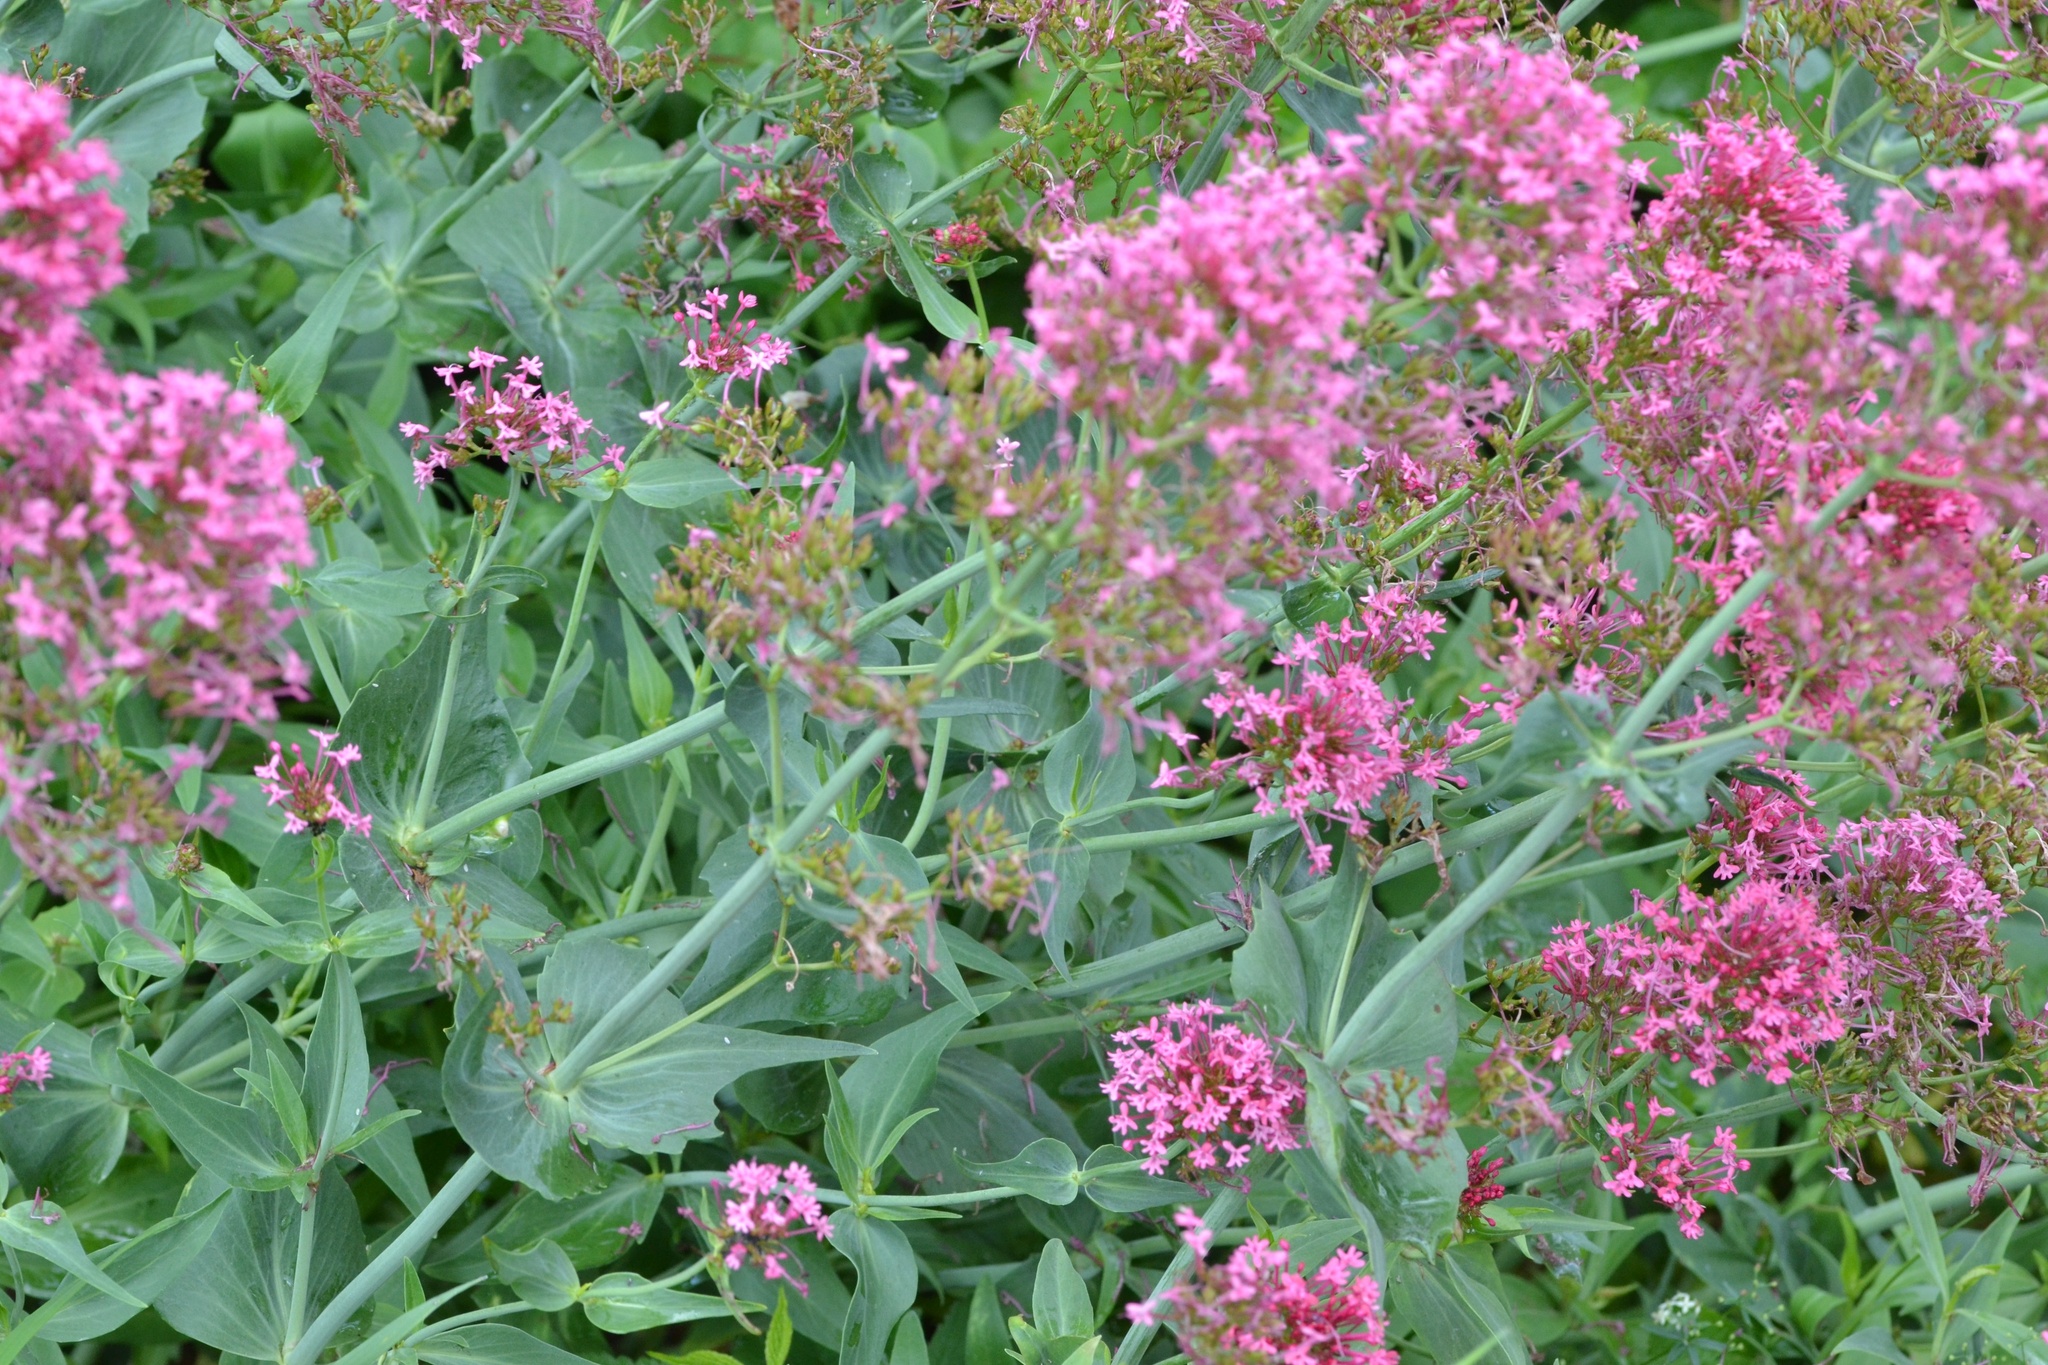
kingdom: Plantae
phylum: Tracheophyta
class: Magnoliopsida
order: Dipsacales
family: Caprifoliaceae
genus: Centranthus
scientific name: Centranthus ruber
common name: Red valerian
